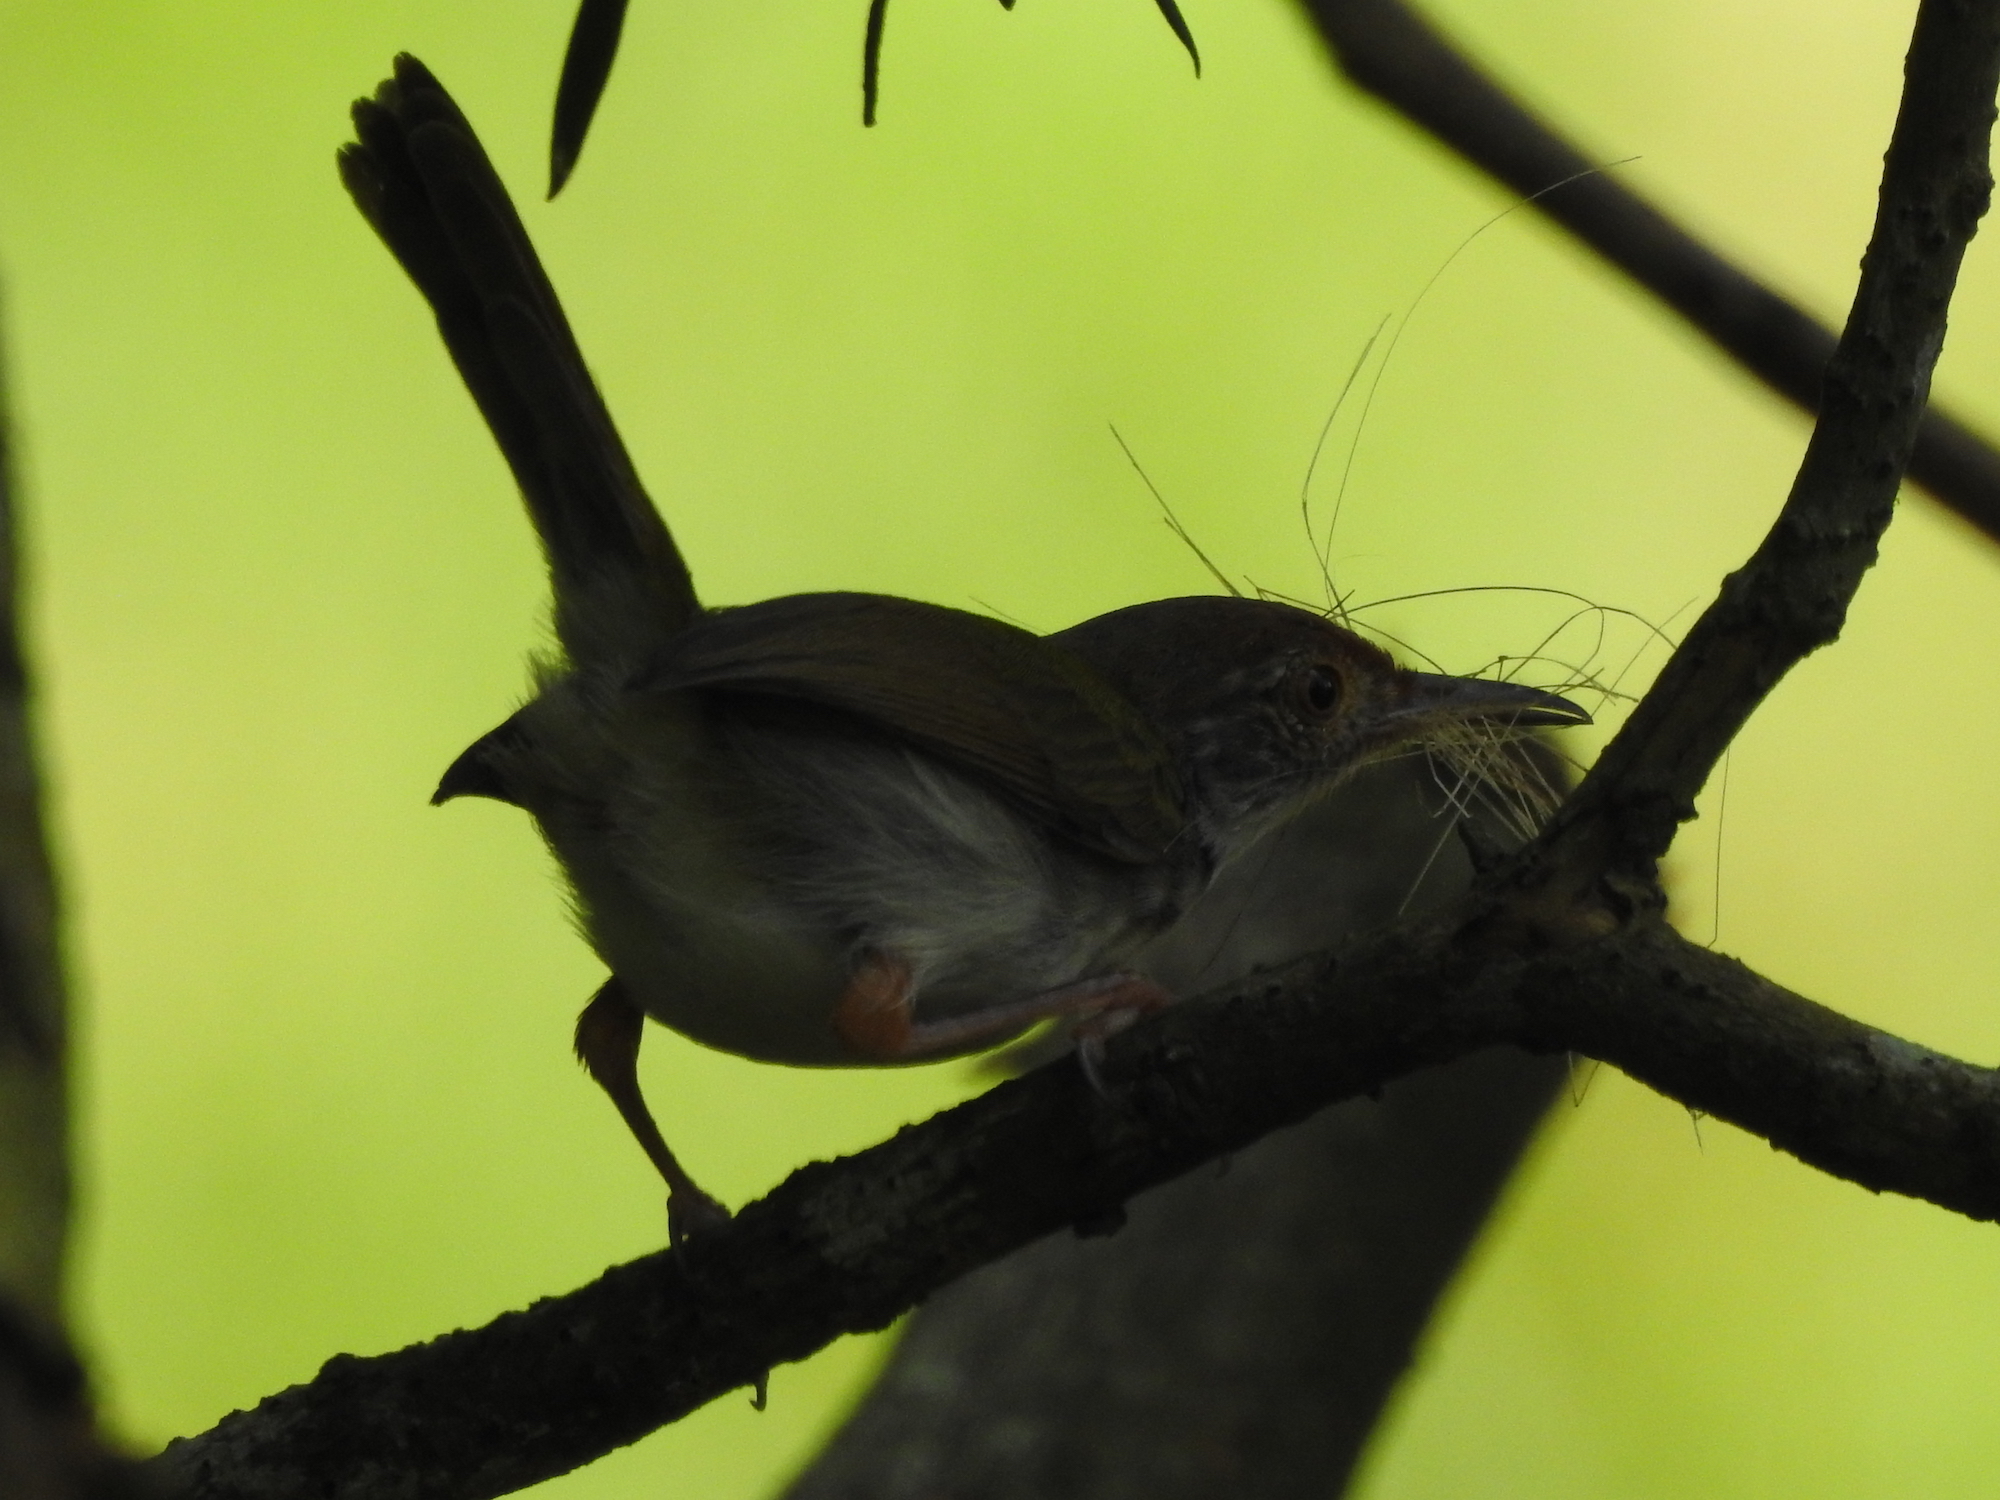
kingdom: Animalia
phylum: Chordata
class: Aves
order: Passeriformes
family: Cisticolidae
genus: Orthotomus
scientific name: Orthotomus sutorius
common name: Common tailorbird
